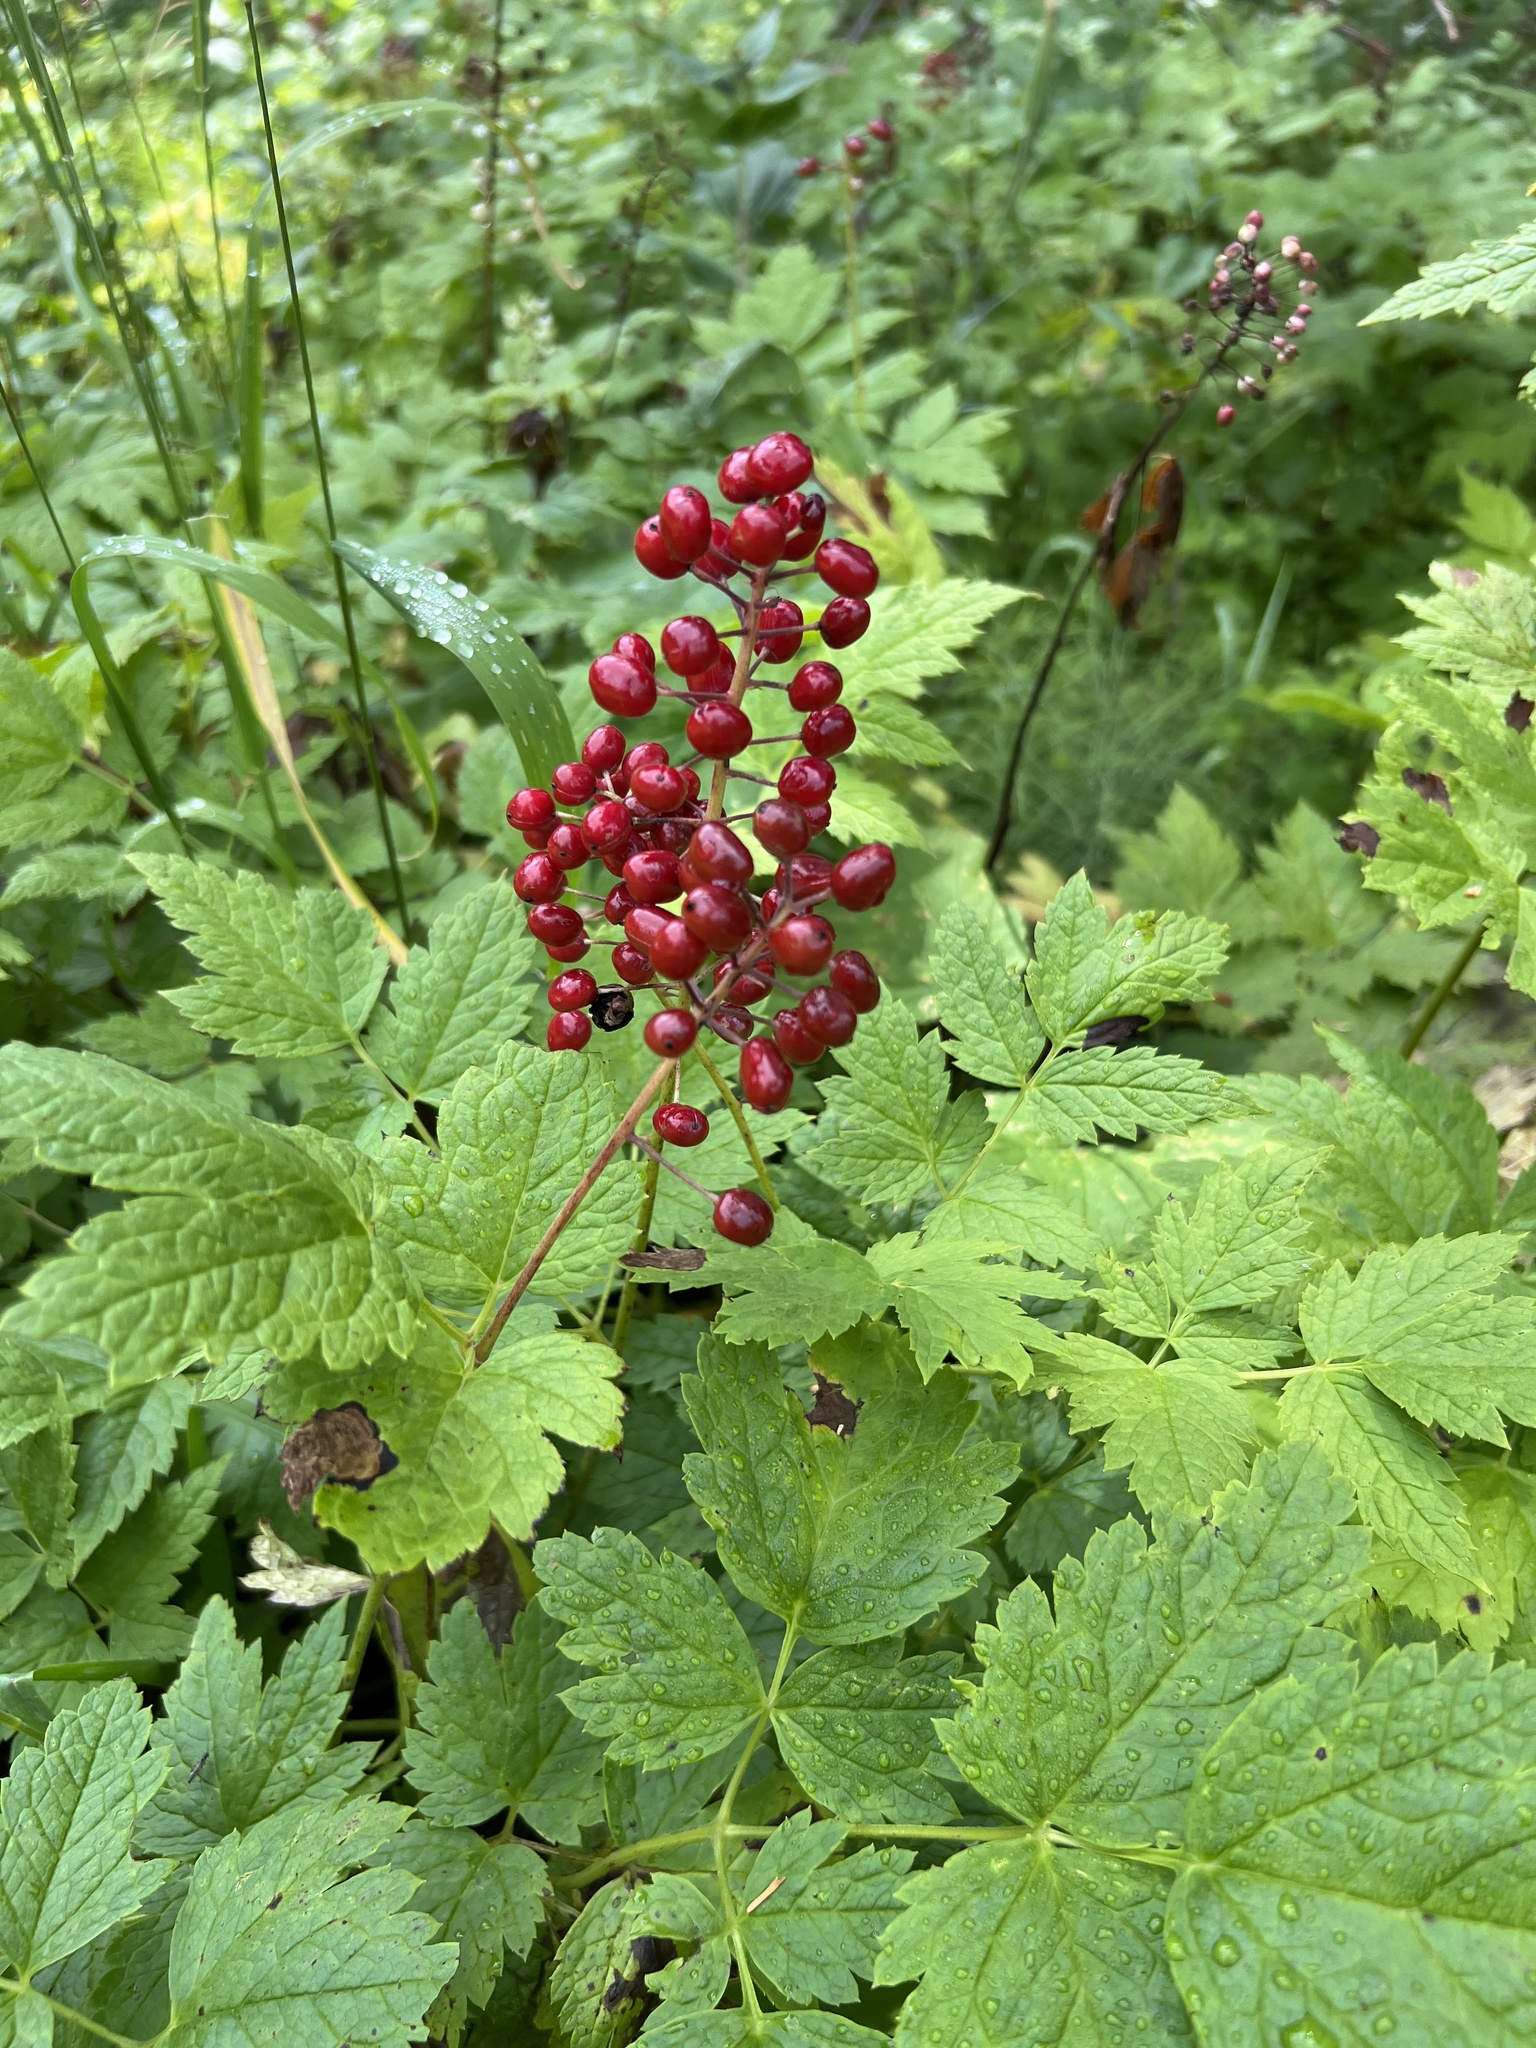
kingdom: Plantae
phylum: Tracheophyta
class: Magnoliopsida
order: Ranunculales
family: Ranunculaceae
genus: Actaea
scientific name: Actaea rubra
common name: Red baneberry
